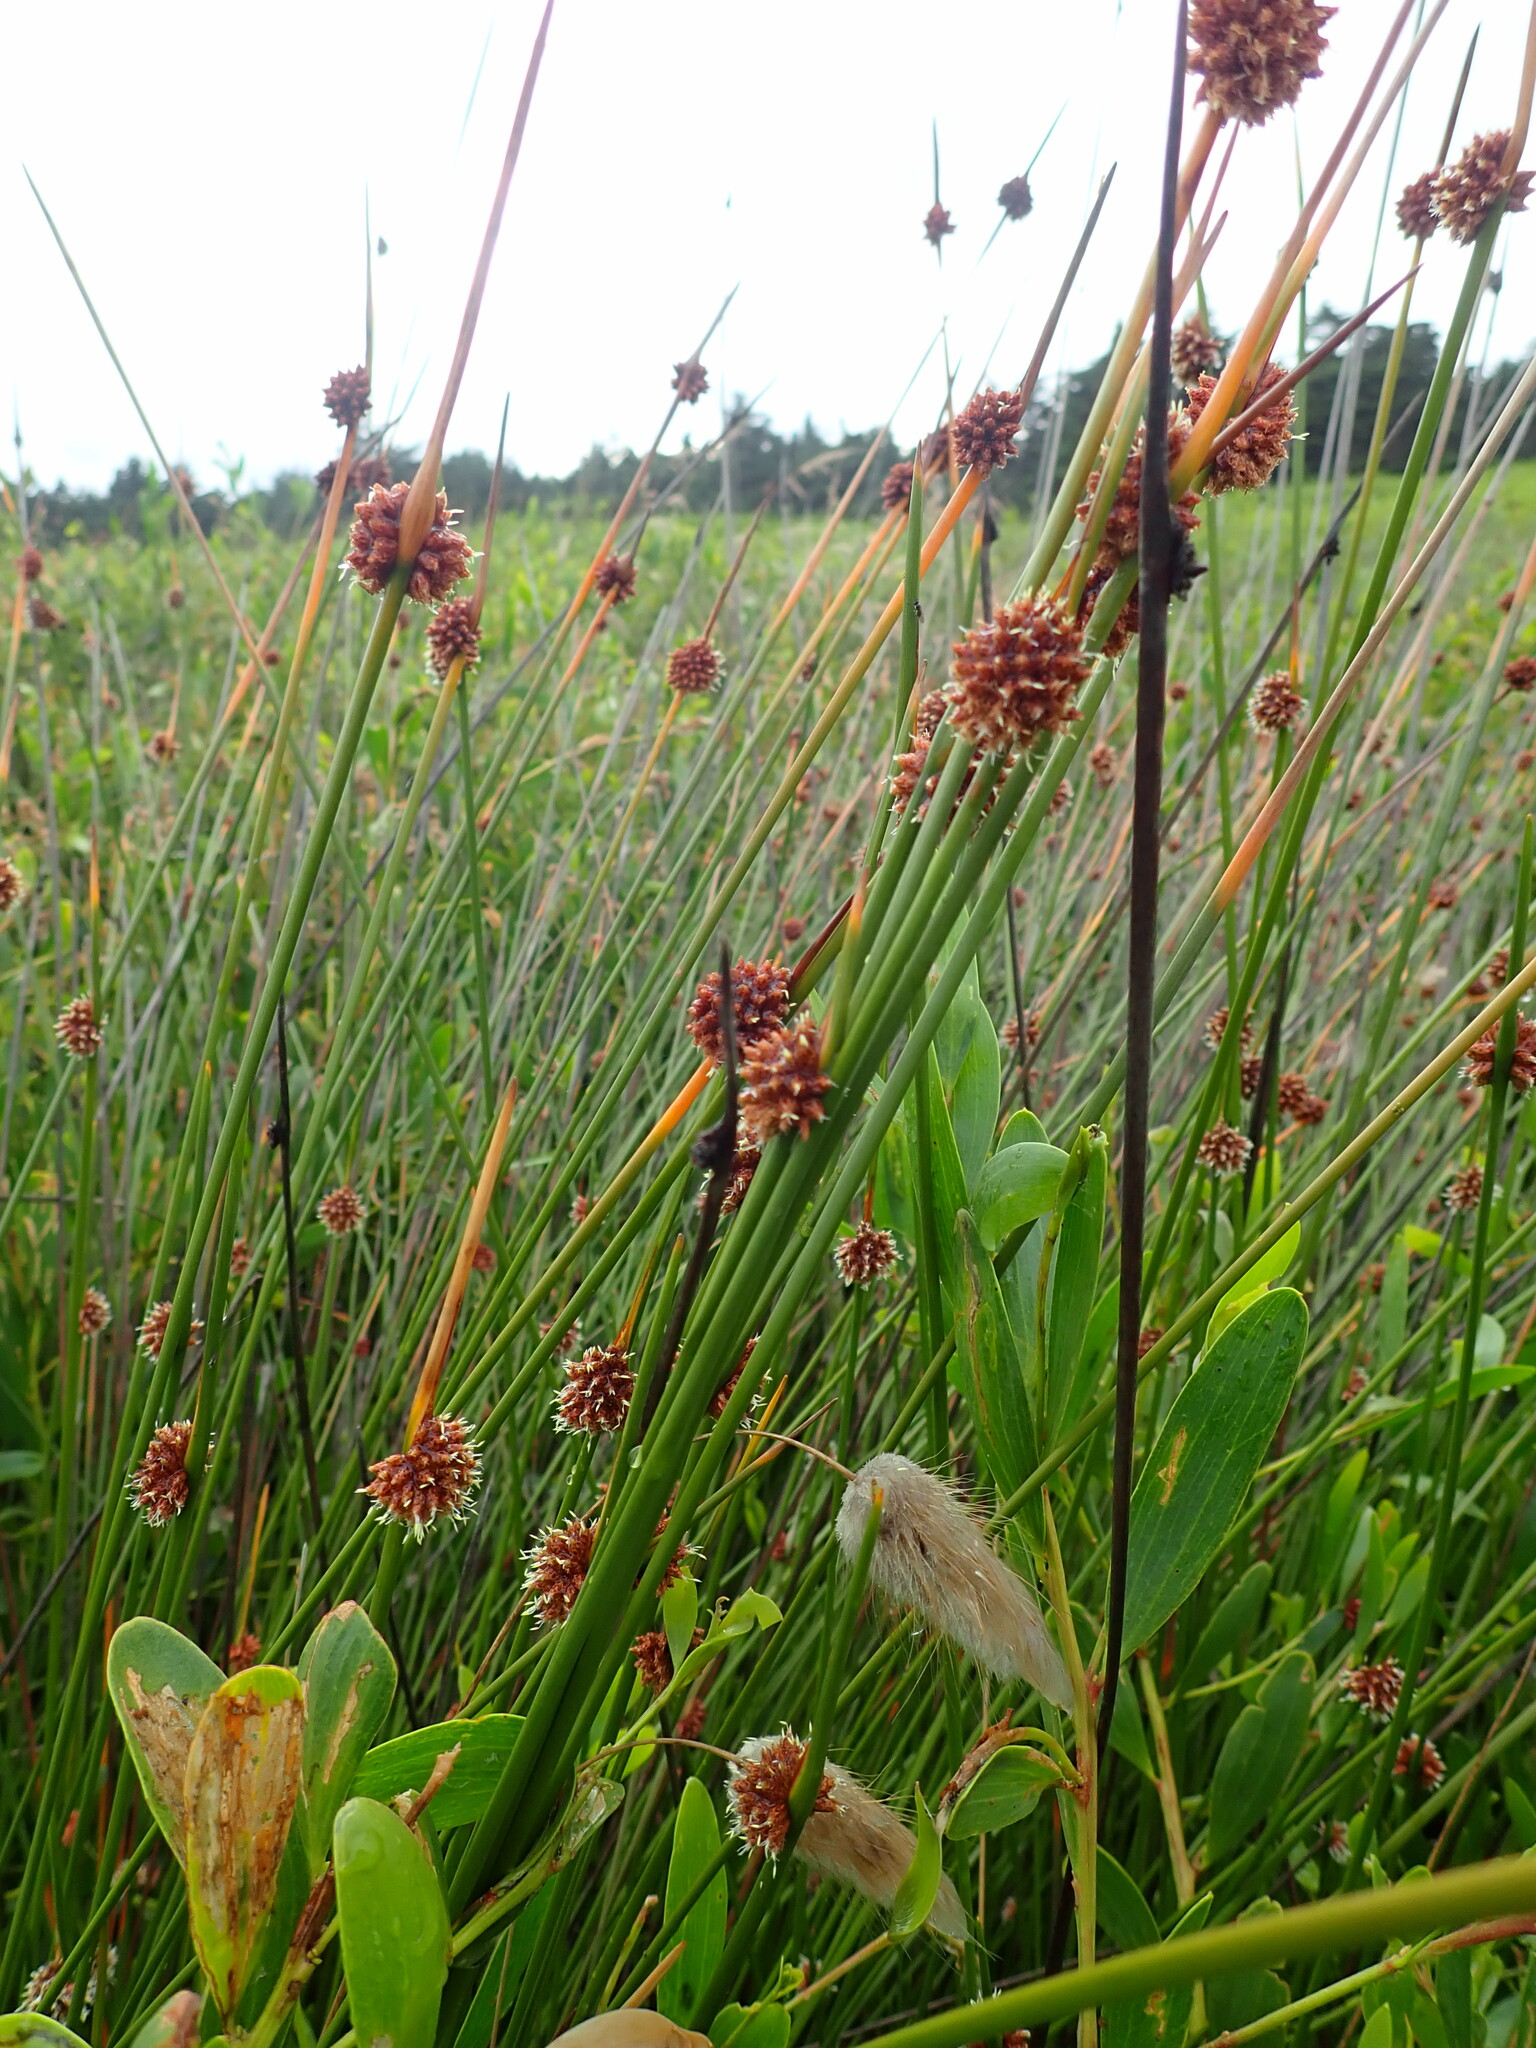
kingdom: Plantae
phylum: Tracheophyta
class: Liliopsida
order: Poales
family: Cyperaceae
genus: Ficinia
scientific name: Ficinia nodosa
